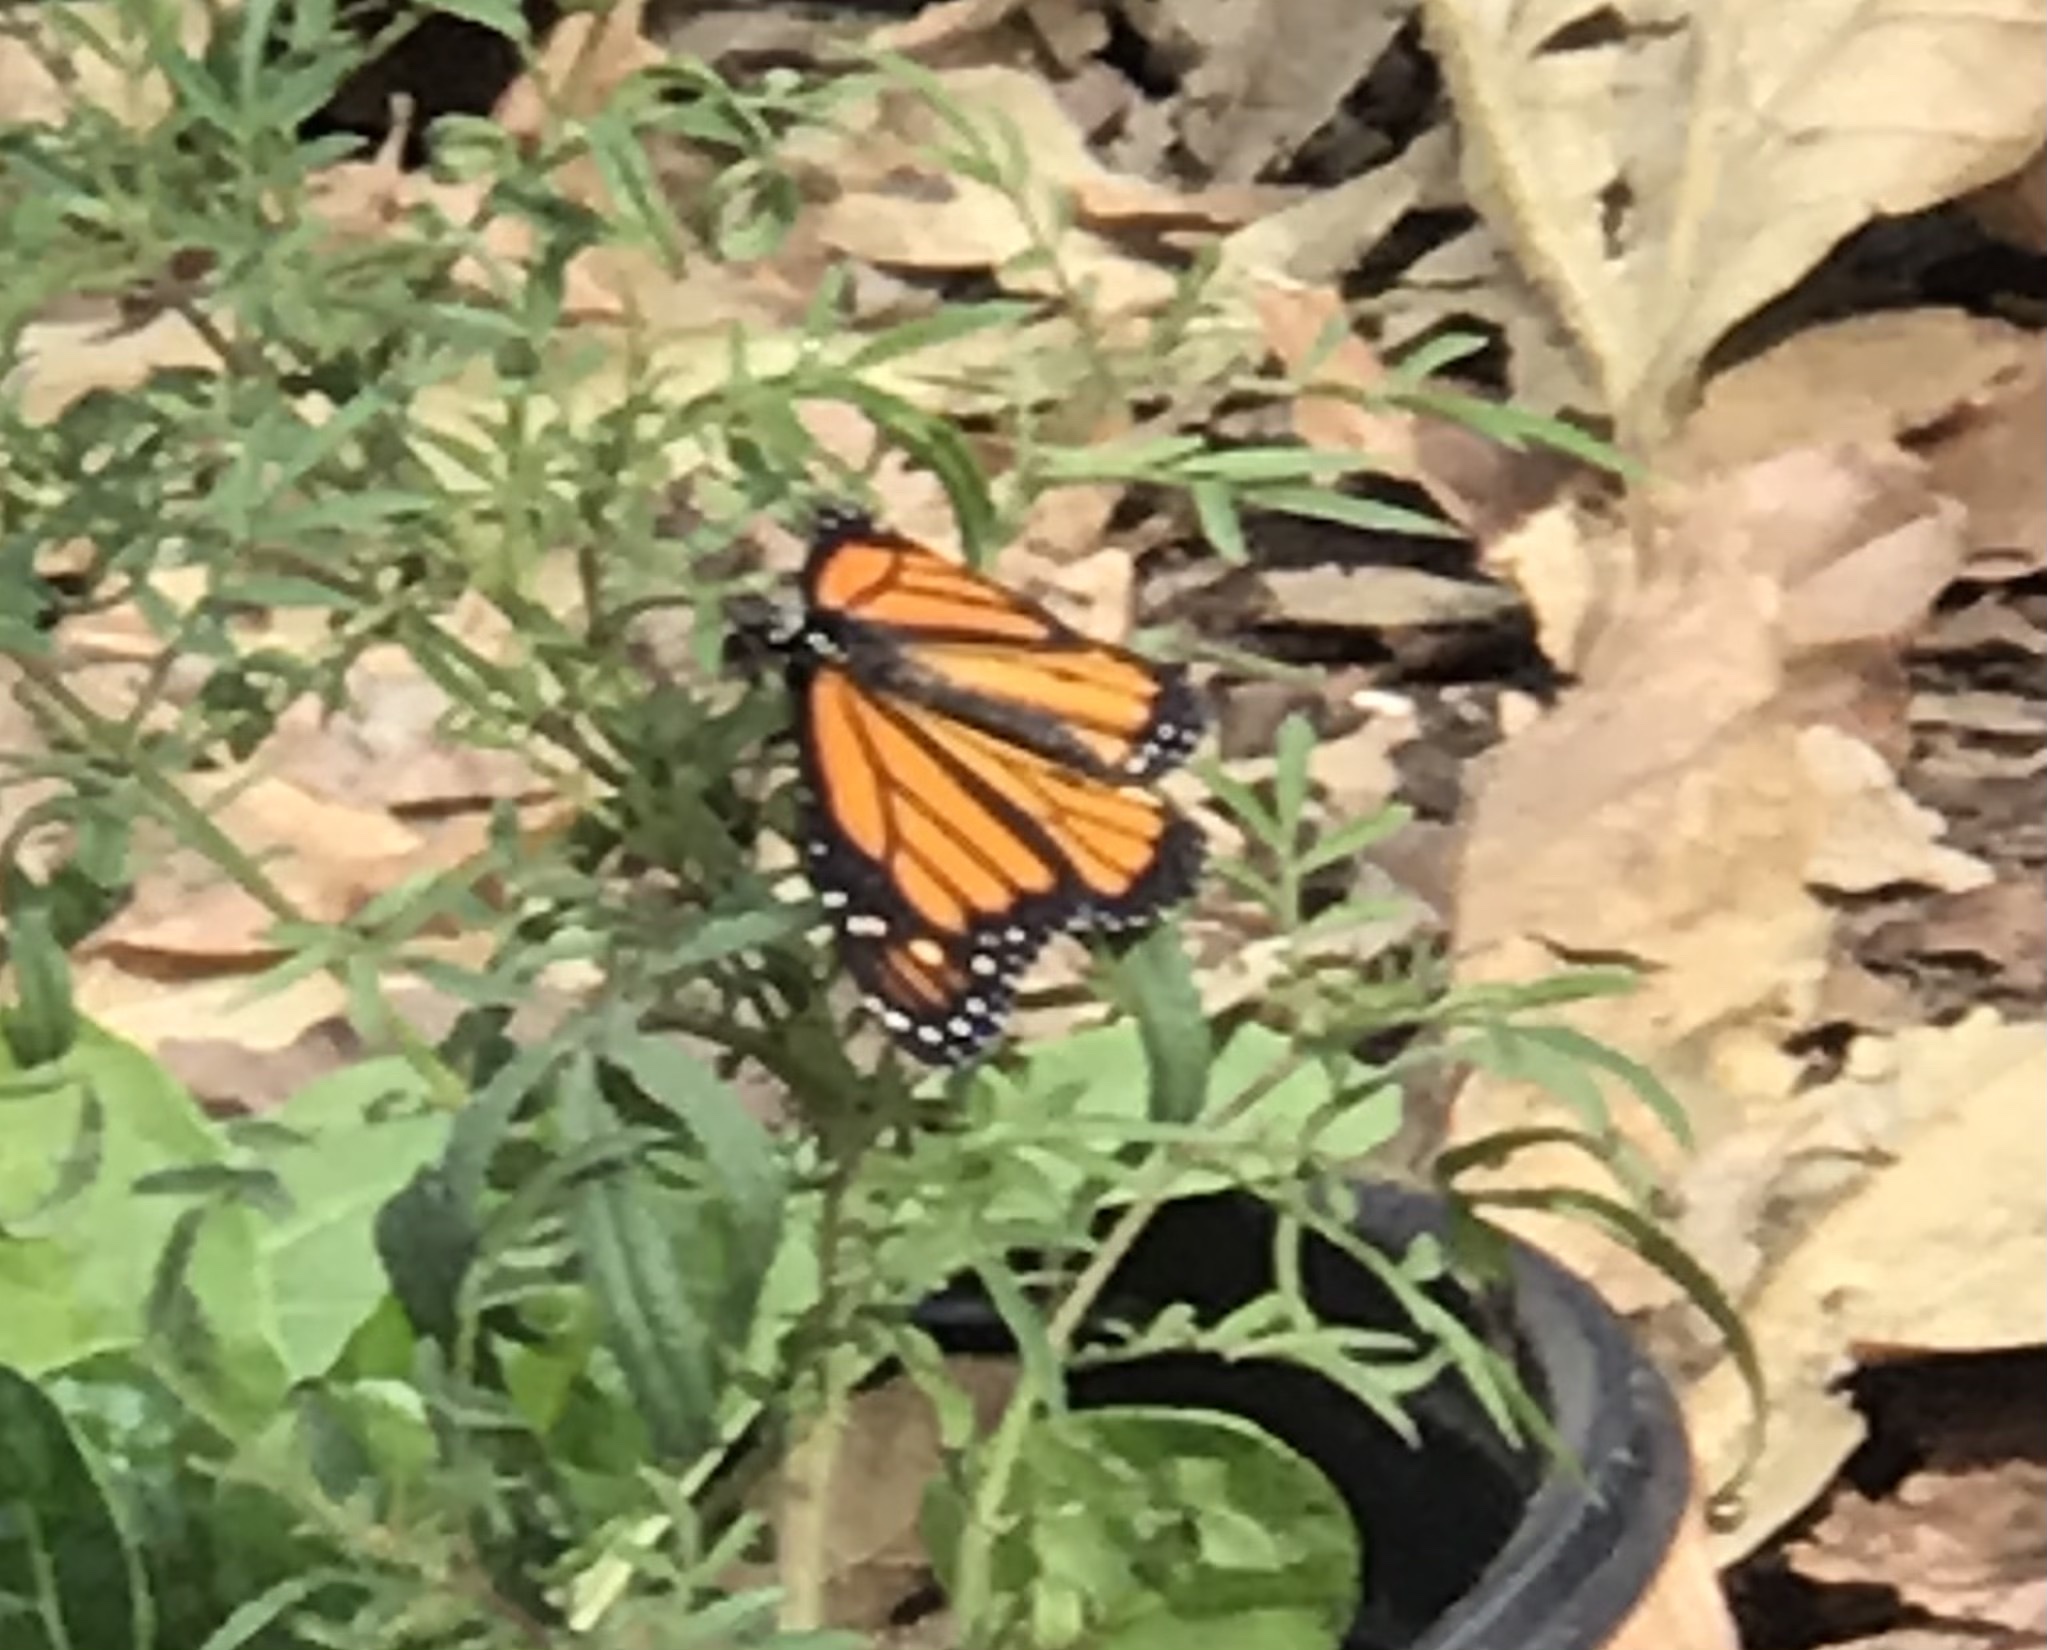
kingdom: Animalia
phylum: Arthropoda
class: Insecta
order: Lepidoptera
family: Nymphalidae
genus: Danaus
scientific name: Danaus plexippus
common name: Monarch
